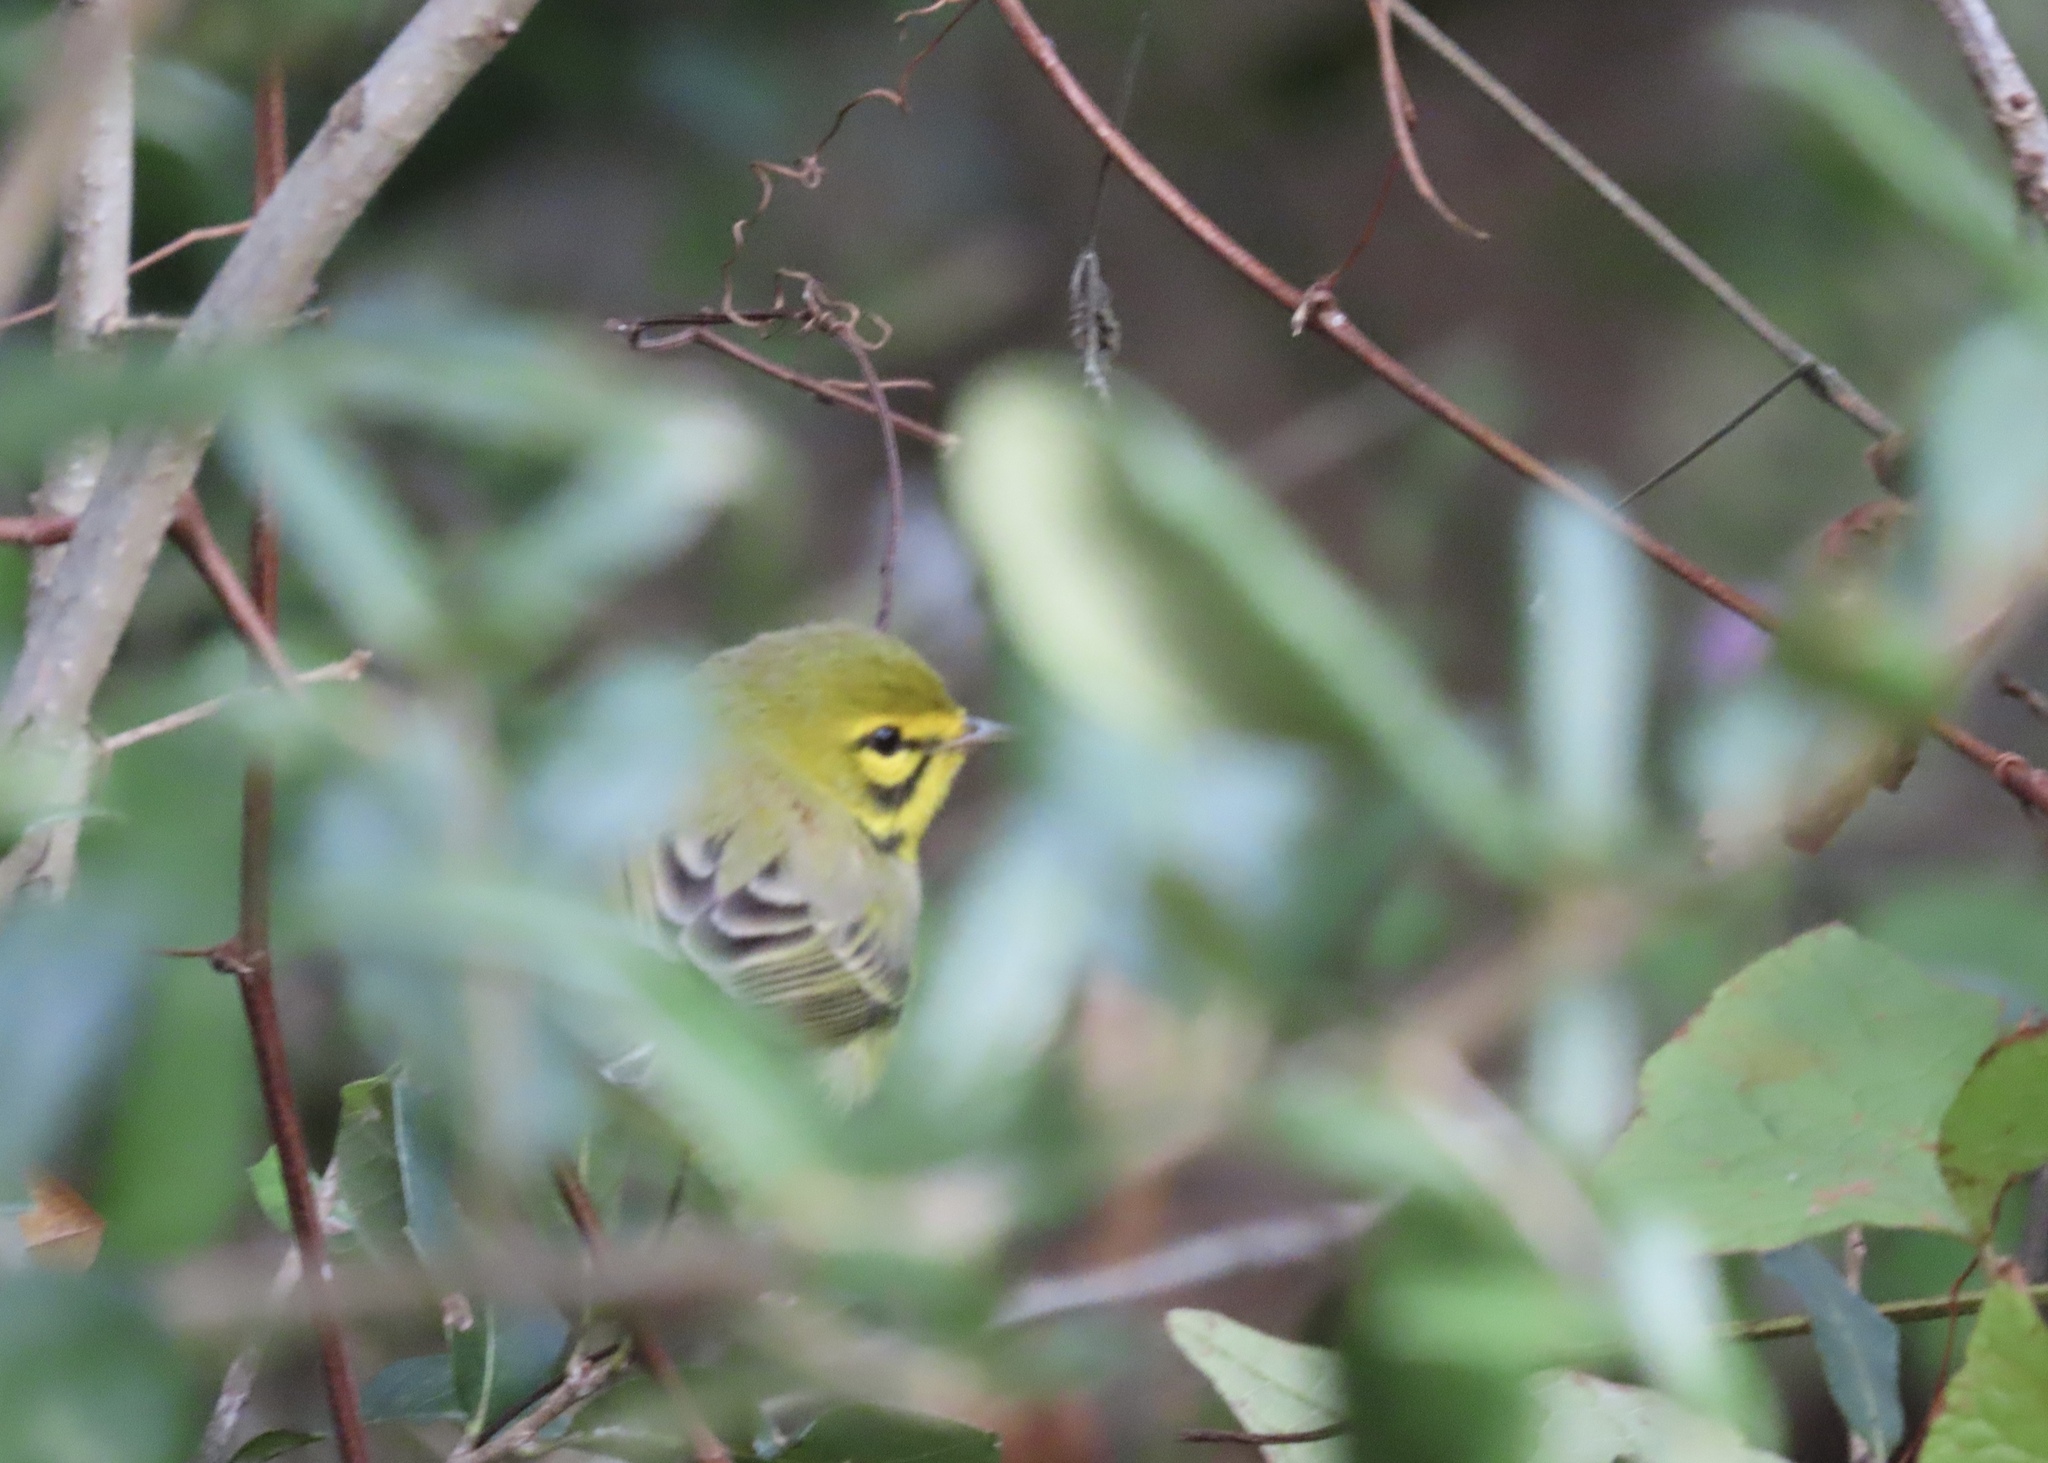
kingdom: Animalia
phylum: Chordata
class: Aves
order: Passeriformes
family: Parulidae
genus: Setophaga
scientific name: Setophaga discolor
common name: Prairie warbler
